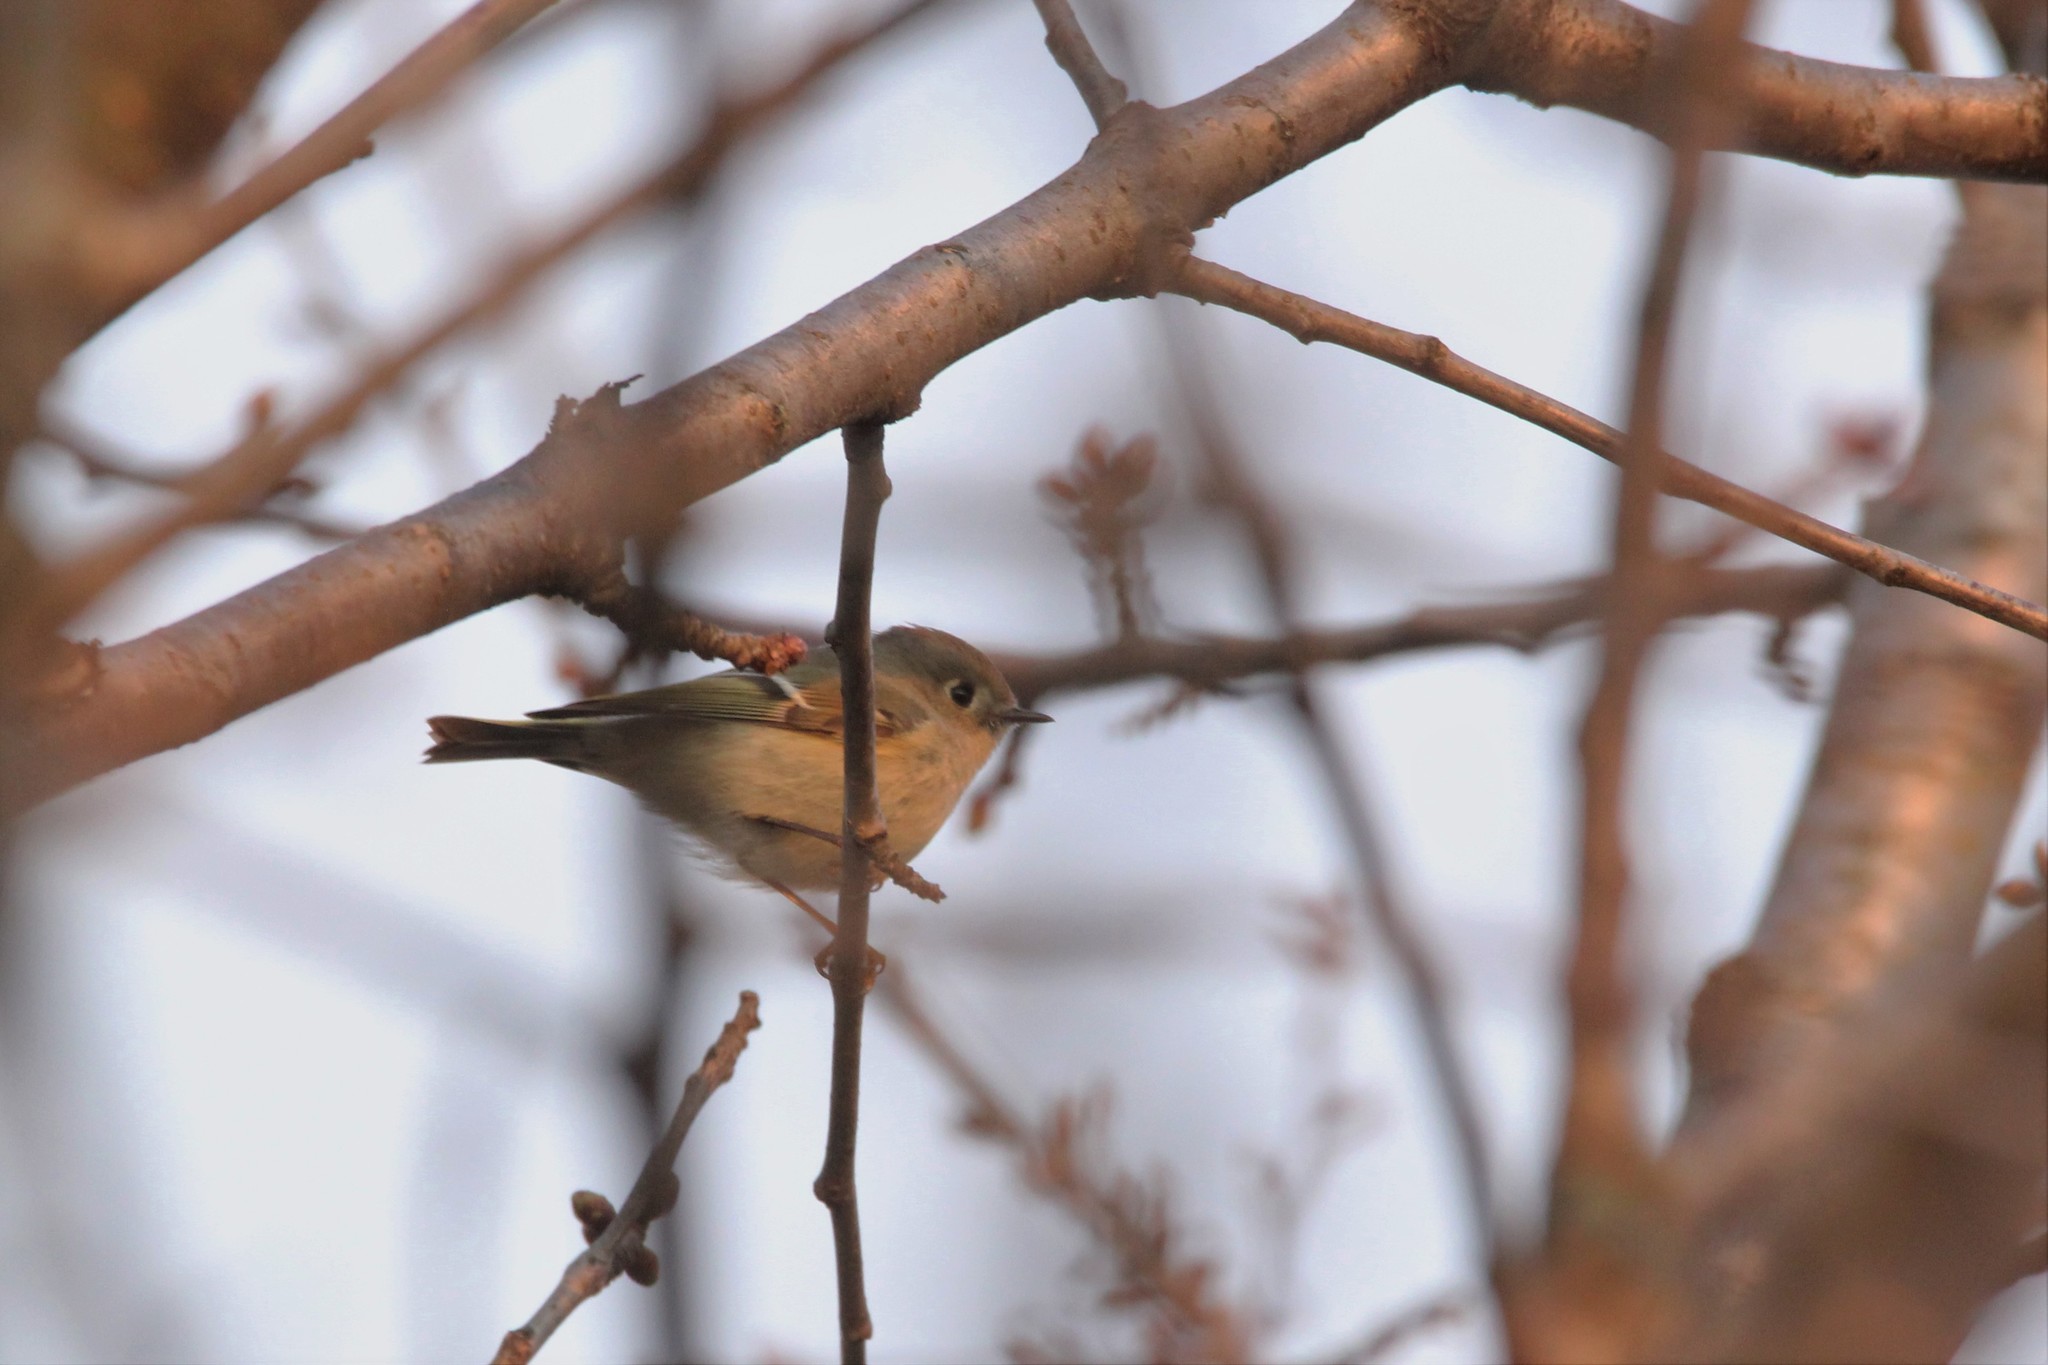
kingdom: Animalia
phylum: Chordata
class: Aves
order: Passeriformes
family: Regulidae
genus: Regulus
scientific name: Regulus calendula
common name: Ruby-crowned kinglet
